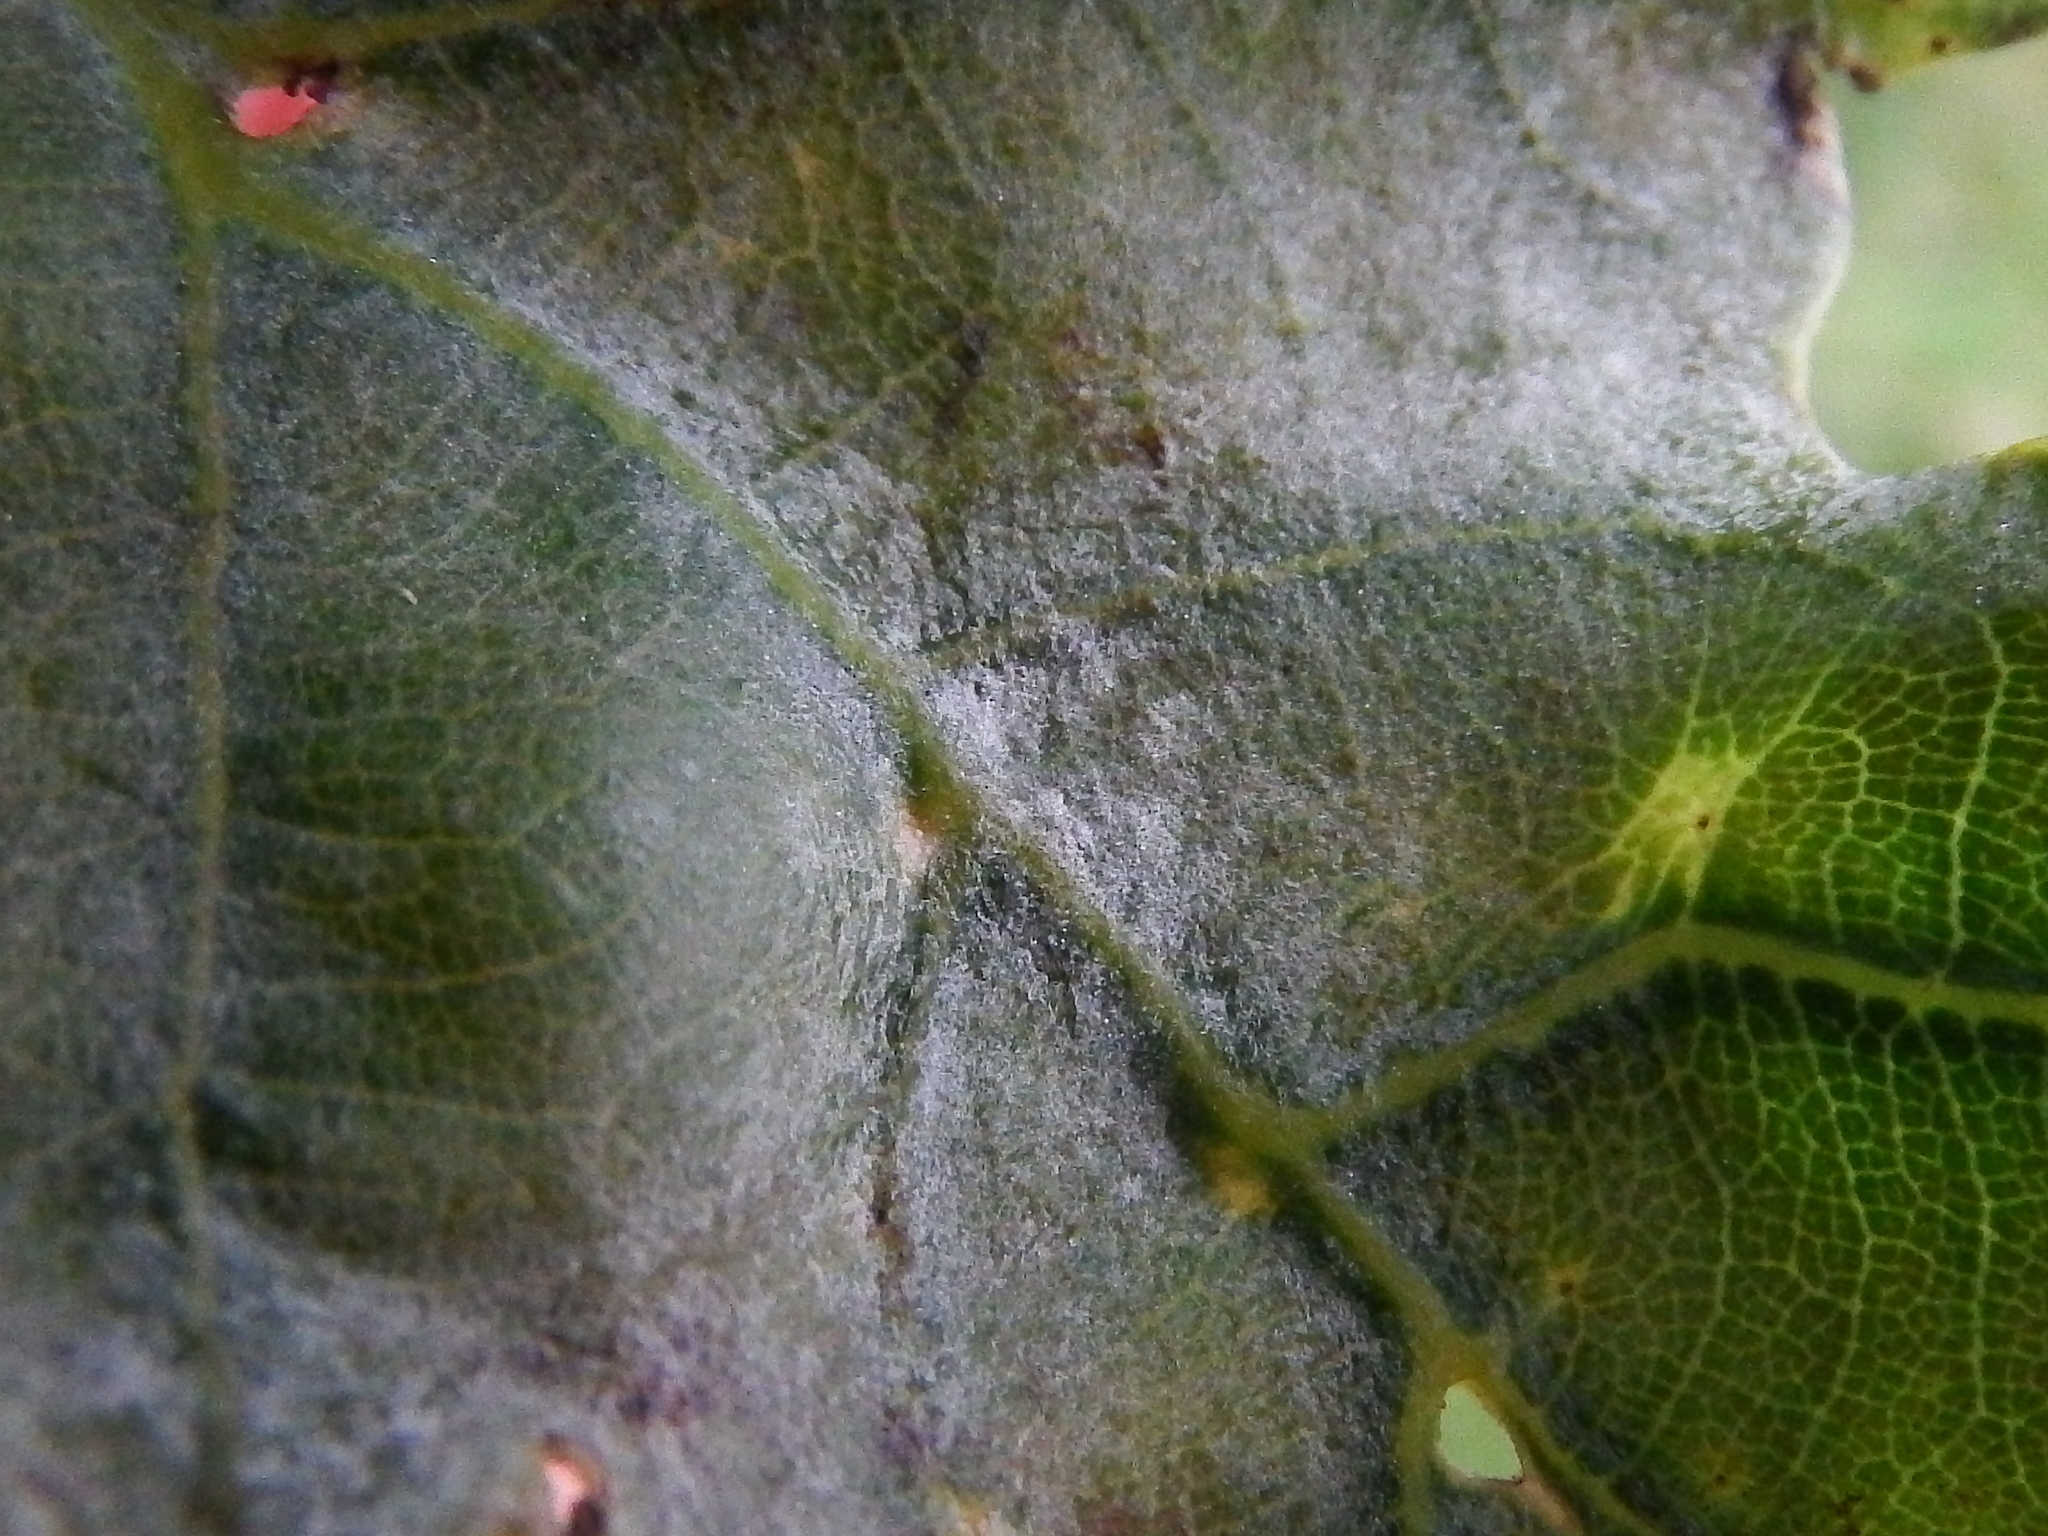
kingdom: Fungi
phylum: Ascomycota
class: Leotiomycetes
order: Helotiales
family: Erysiphaceae
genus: Erysiphe
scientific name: Erysiphe alphitoides
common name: Oak mildew
